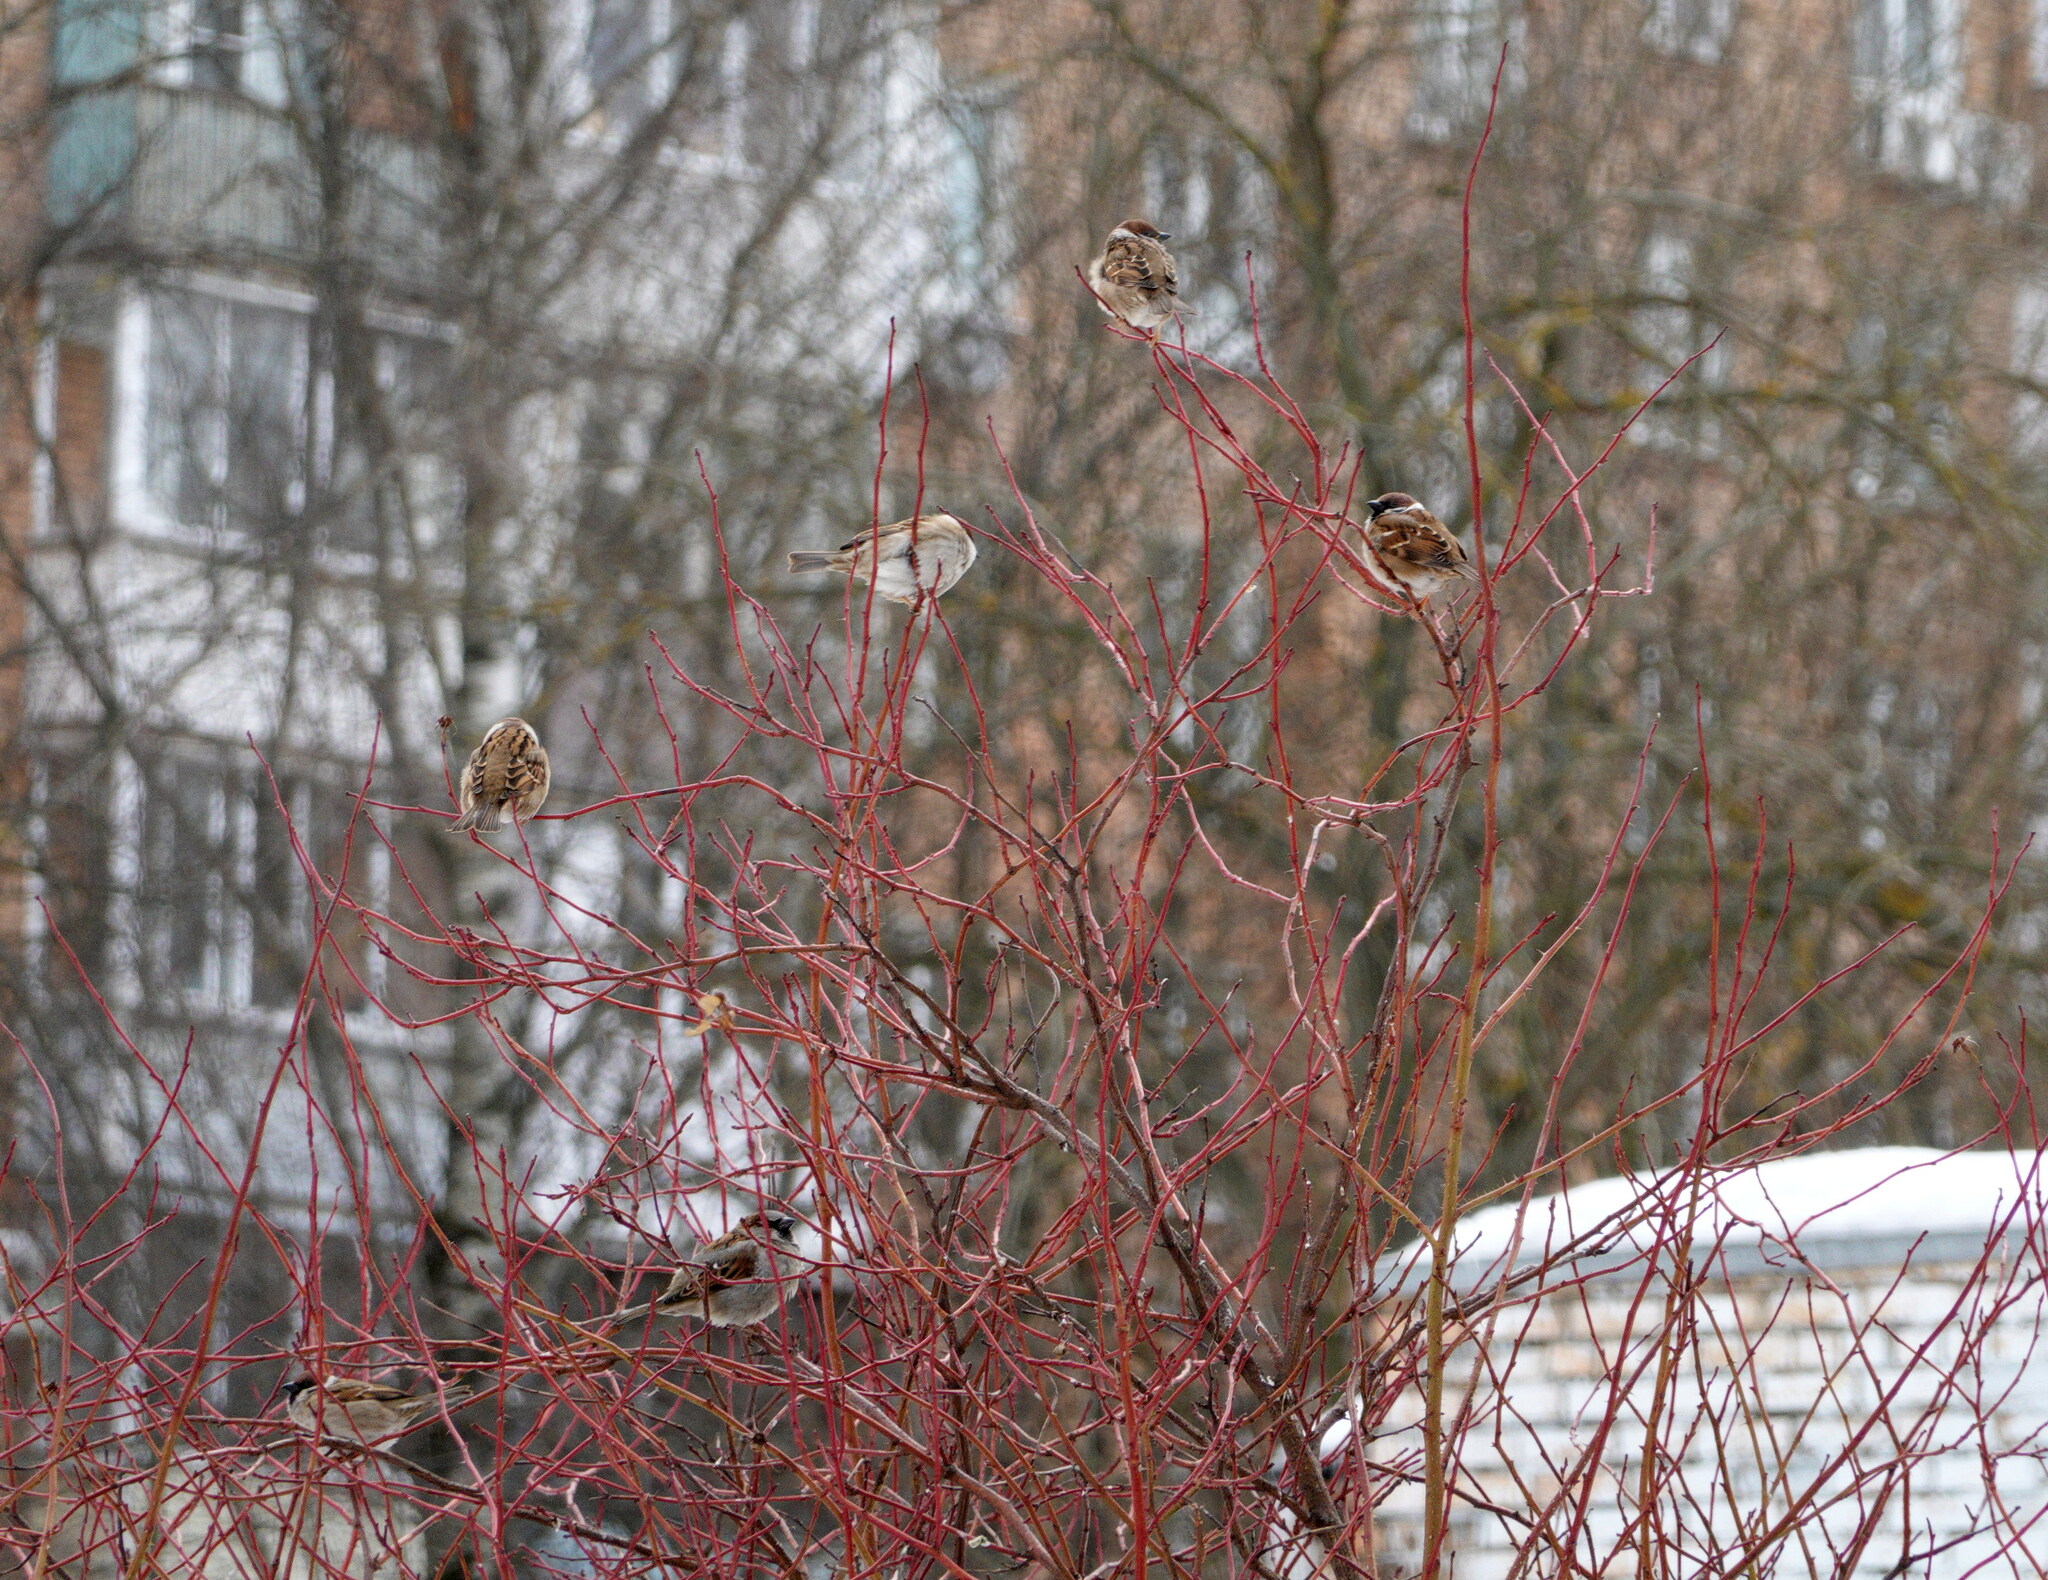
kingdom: Animalia
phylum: Chordata
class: Aves
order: Passeriformes
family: Passeridae
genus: Passer
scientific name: Passer montanus
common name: Eurasian tree sparrow
